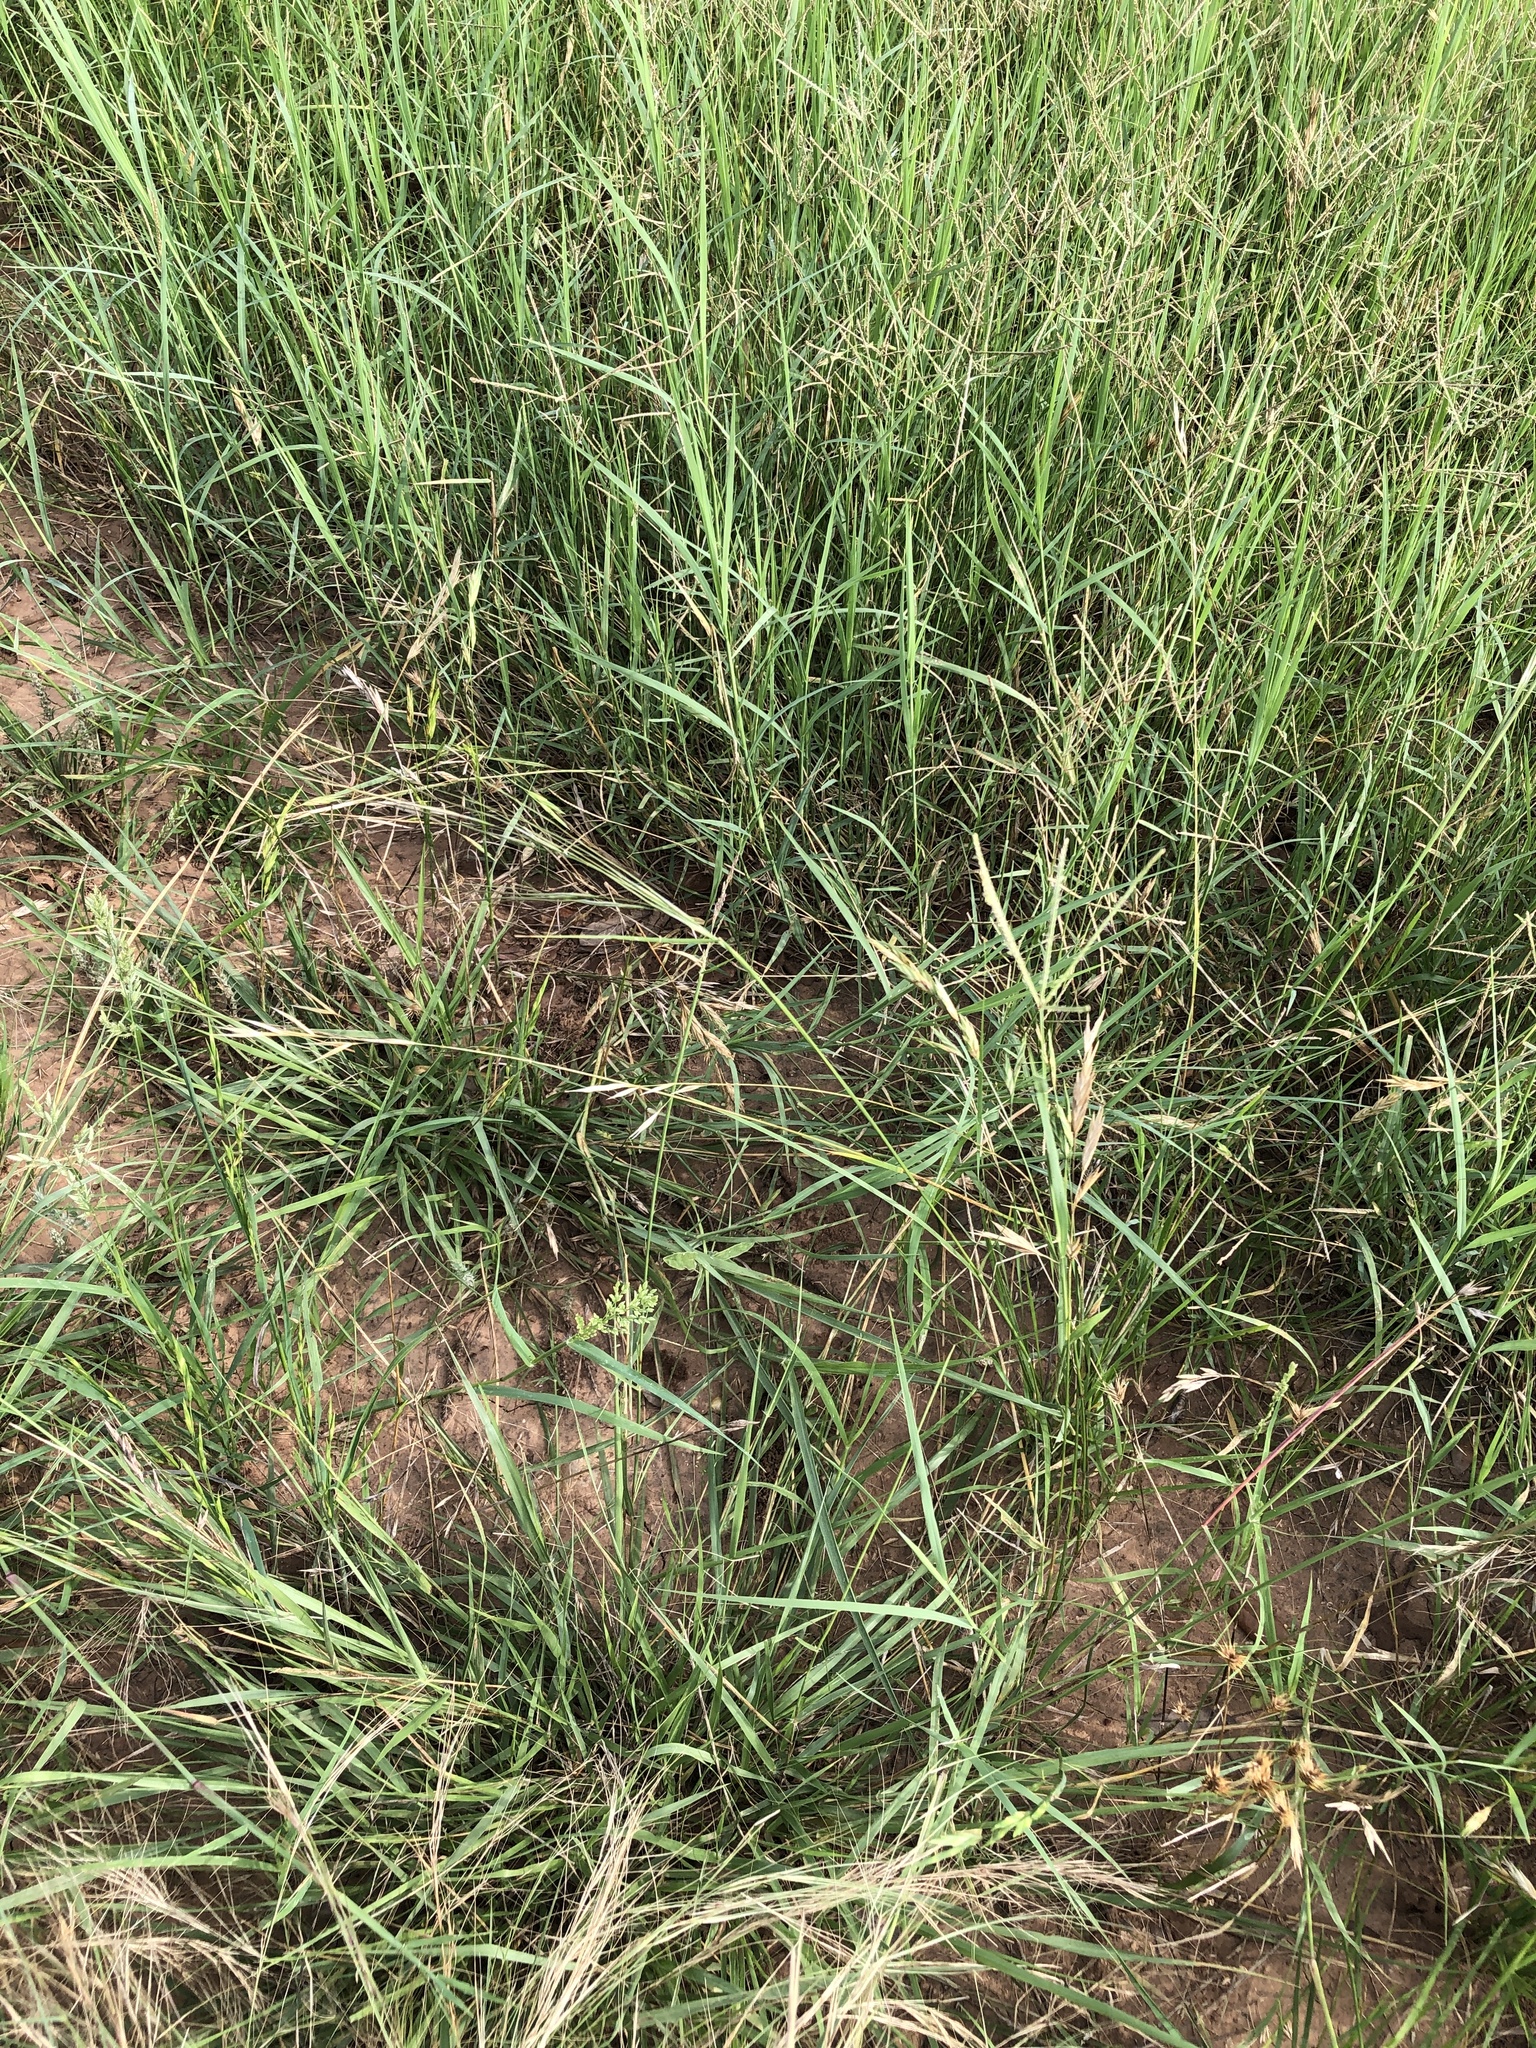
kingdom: Plantae
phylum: Tracheophyta
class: Liliopsida
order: Poales
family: Poaceae
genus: Nassella
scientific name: Nassella leucotricha
